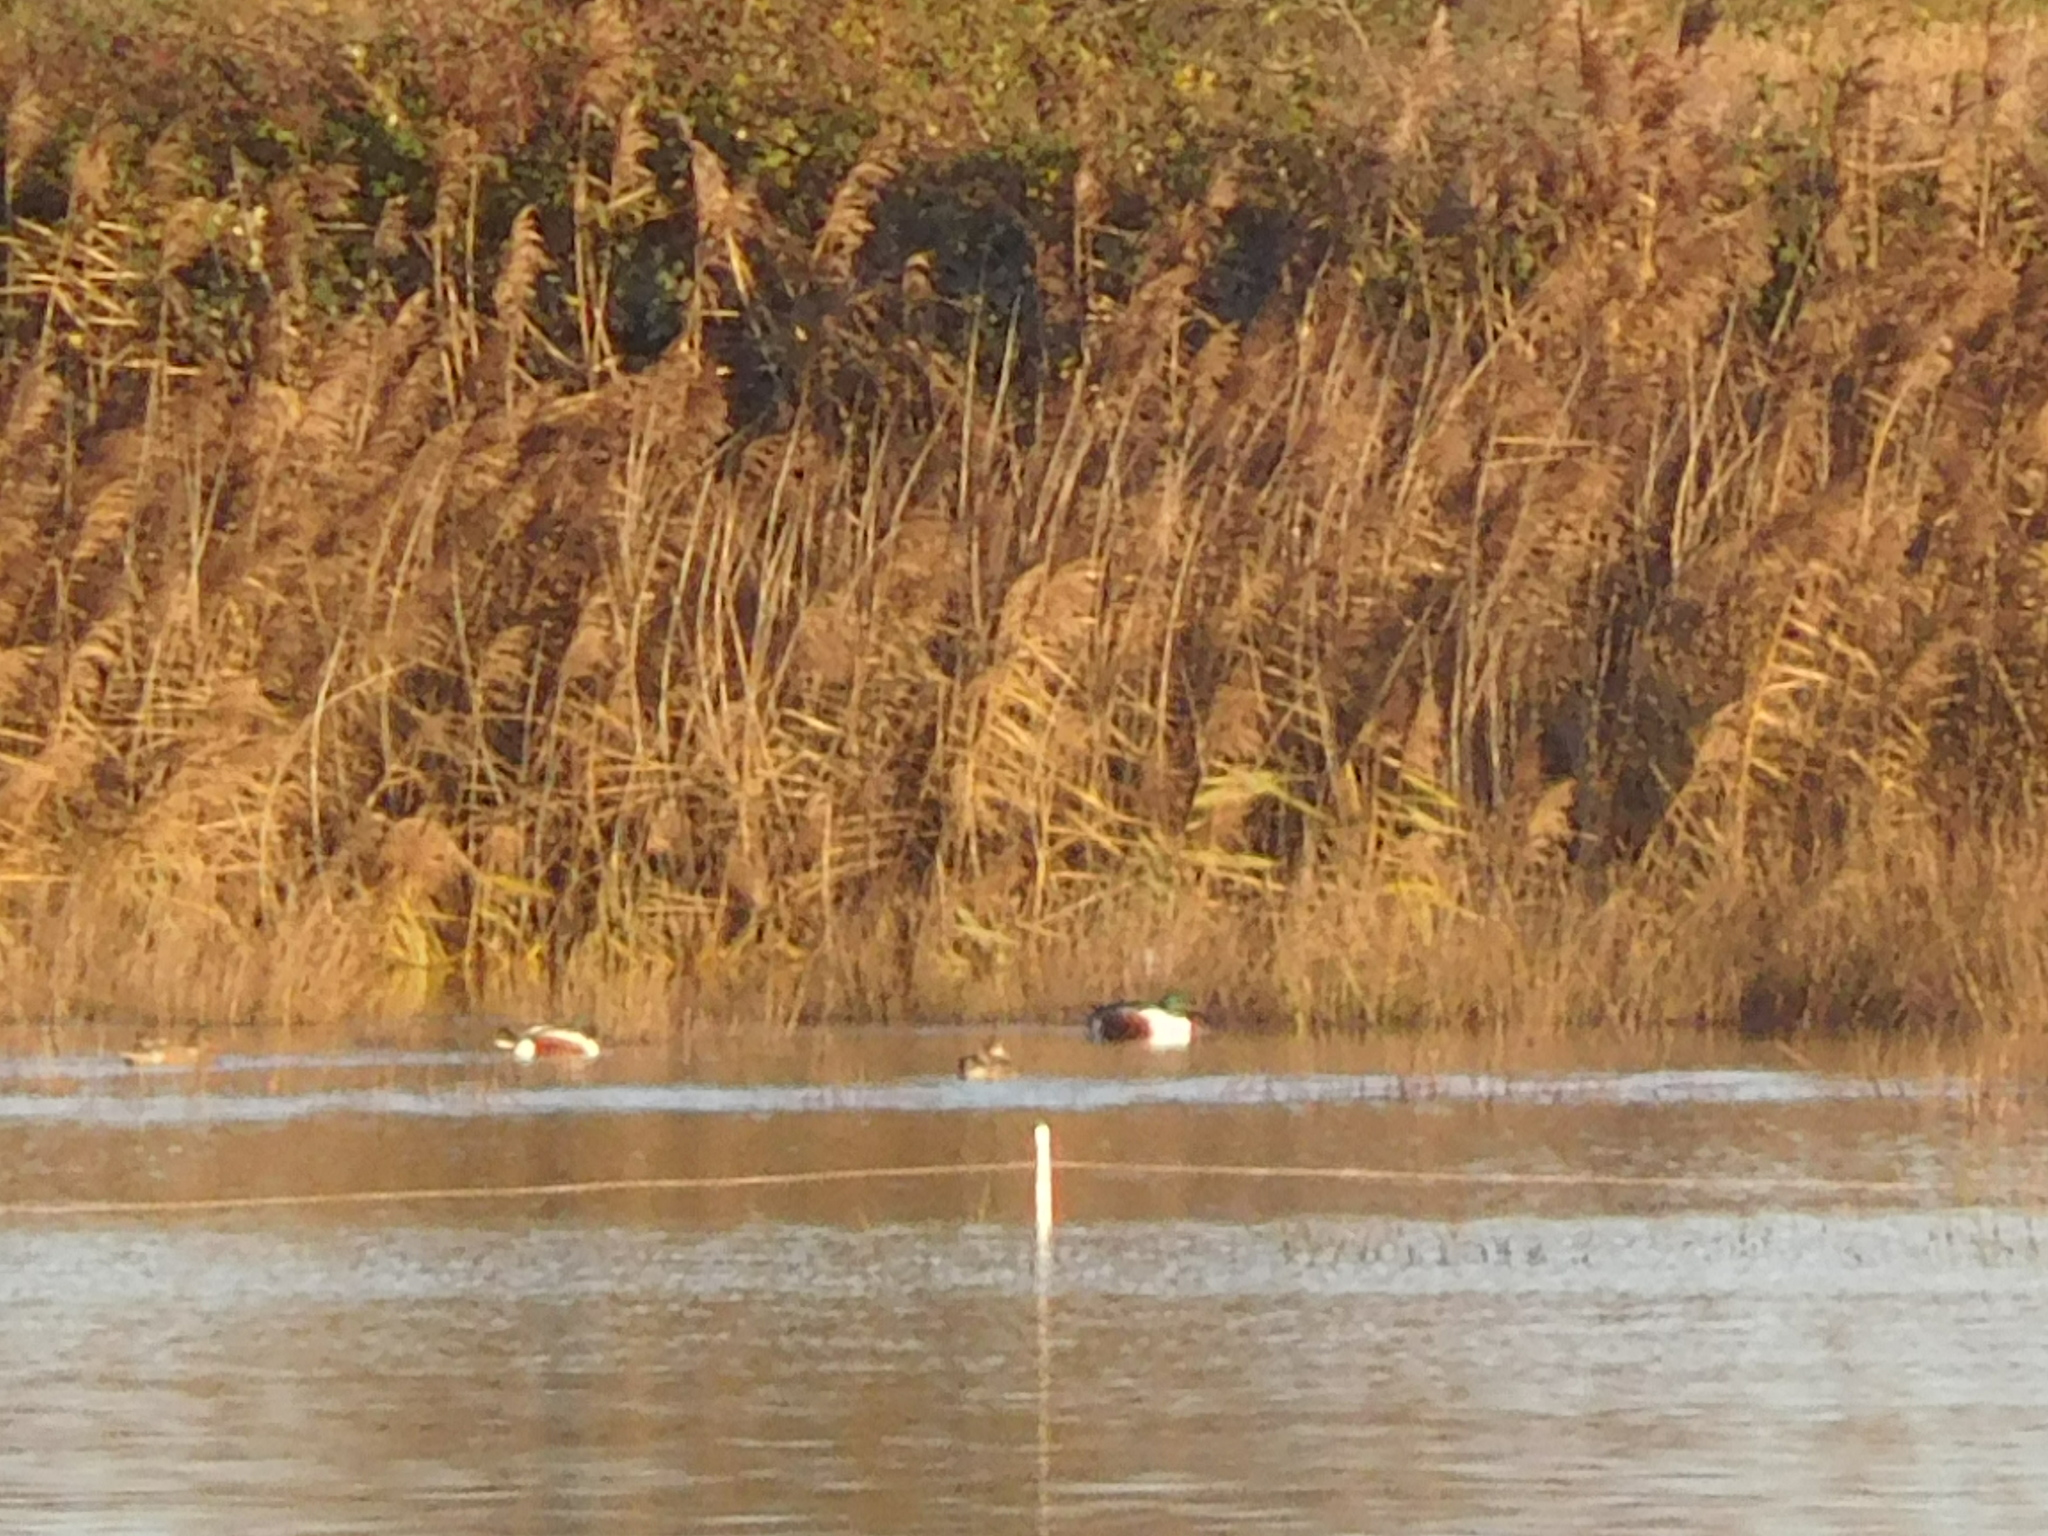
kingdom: Animalia
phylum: Chordata
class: Aves
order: Anseriformes
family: Anatidae
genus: Spatula
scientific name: Spatula clypeata
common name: Northern shoveler
